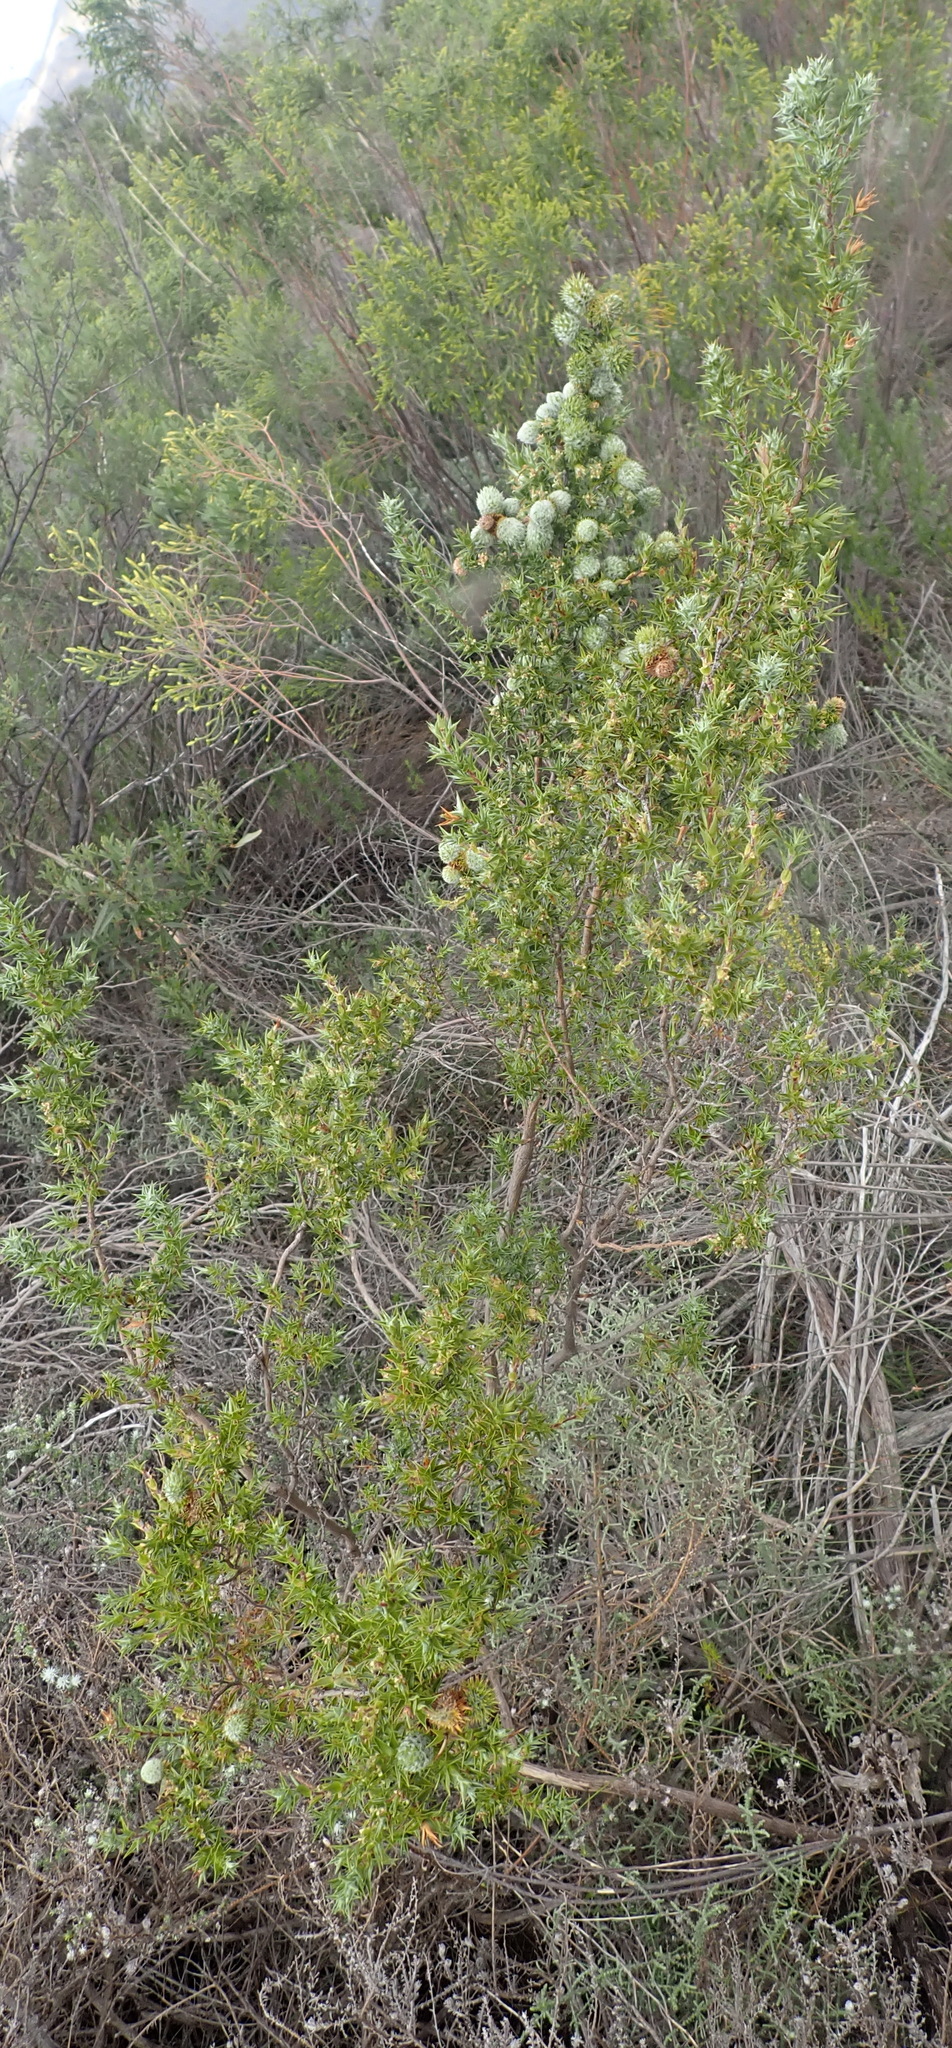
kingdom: Plantae
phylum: Tracheophyta
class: Magnoliopsida
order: Rosales
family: Rosaceae
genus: Cliffortia
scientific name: Cliffortia ruscifolia
